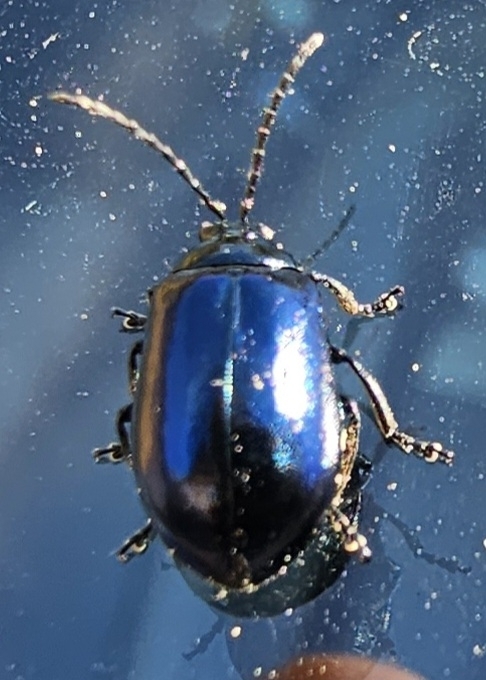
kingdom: Animalia
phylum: Arthropoda
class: Insecta
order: Coleoptera
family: Chrysomelidae
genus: Agelastica
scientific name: Agelastica alni
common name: Alder leaf beetle
